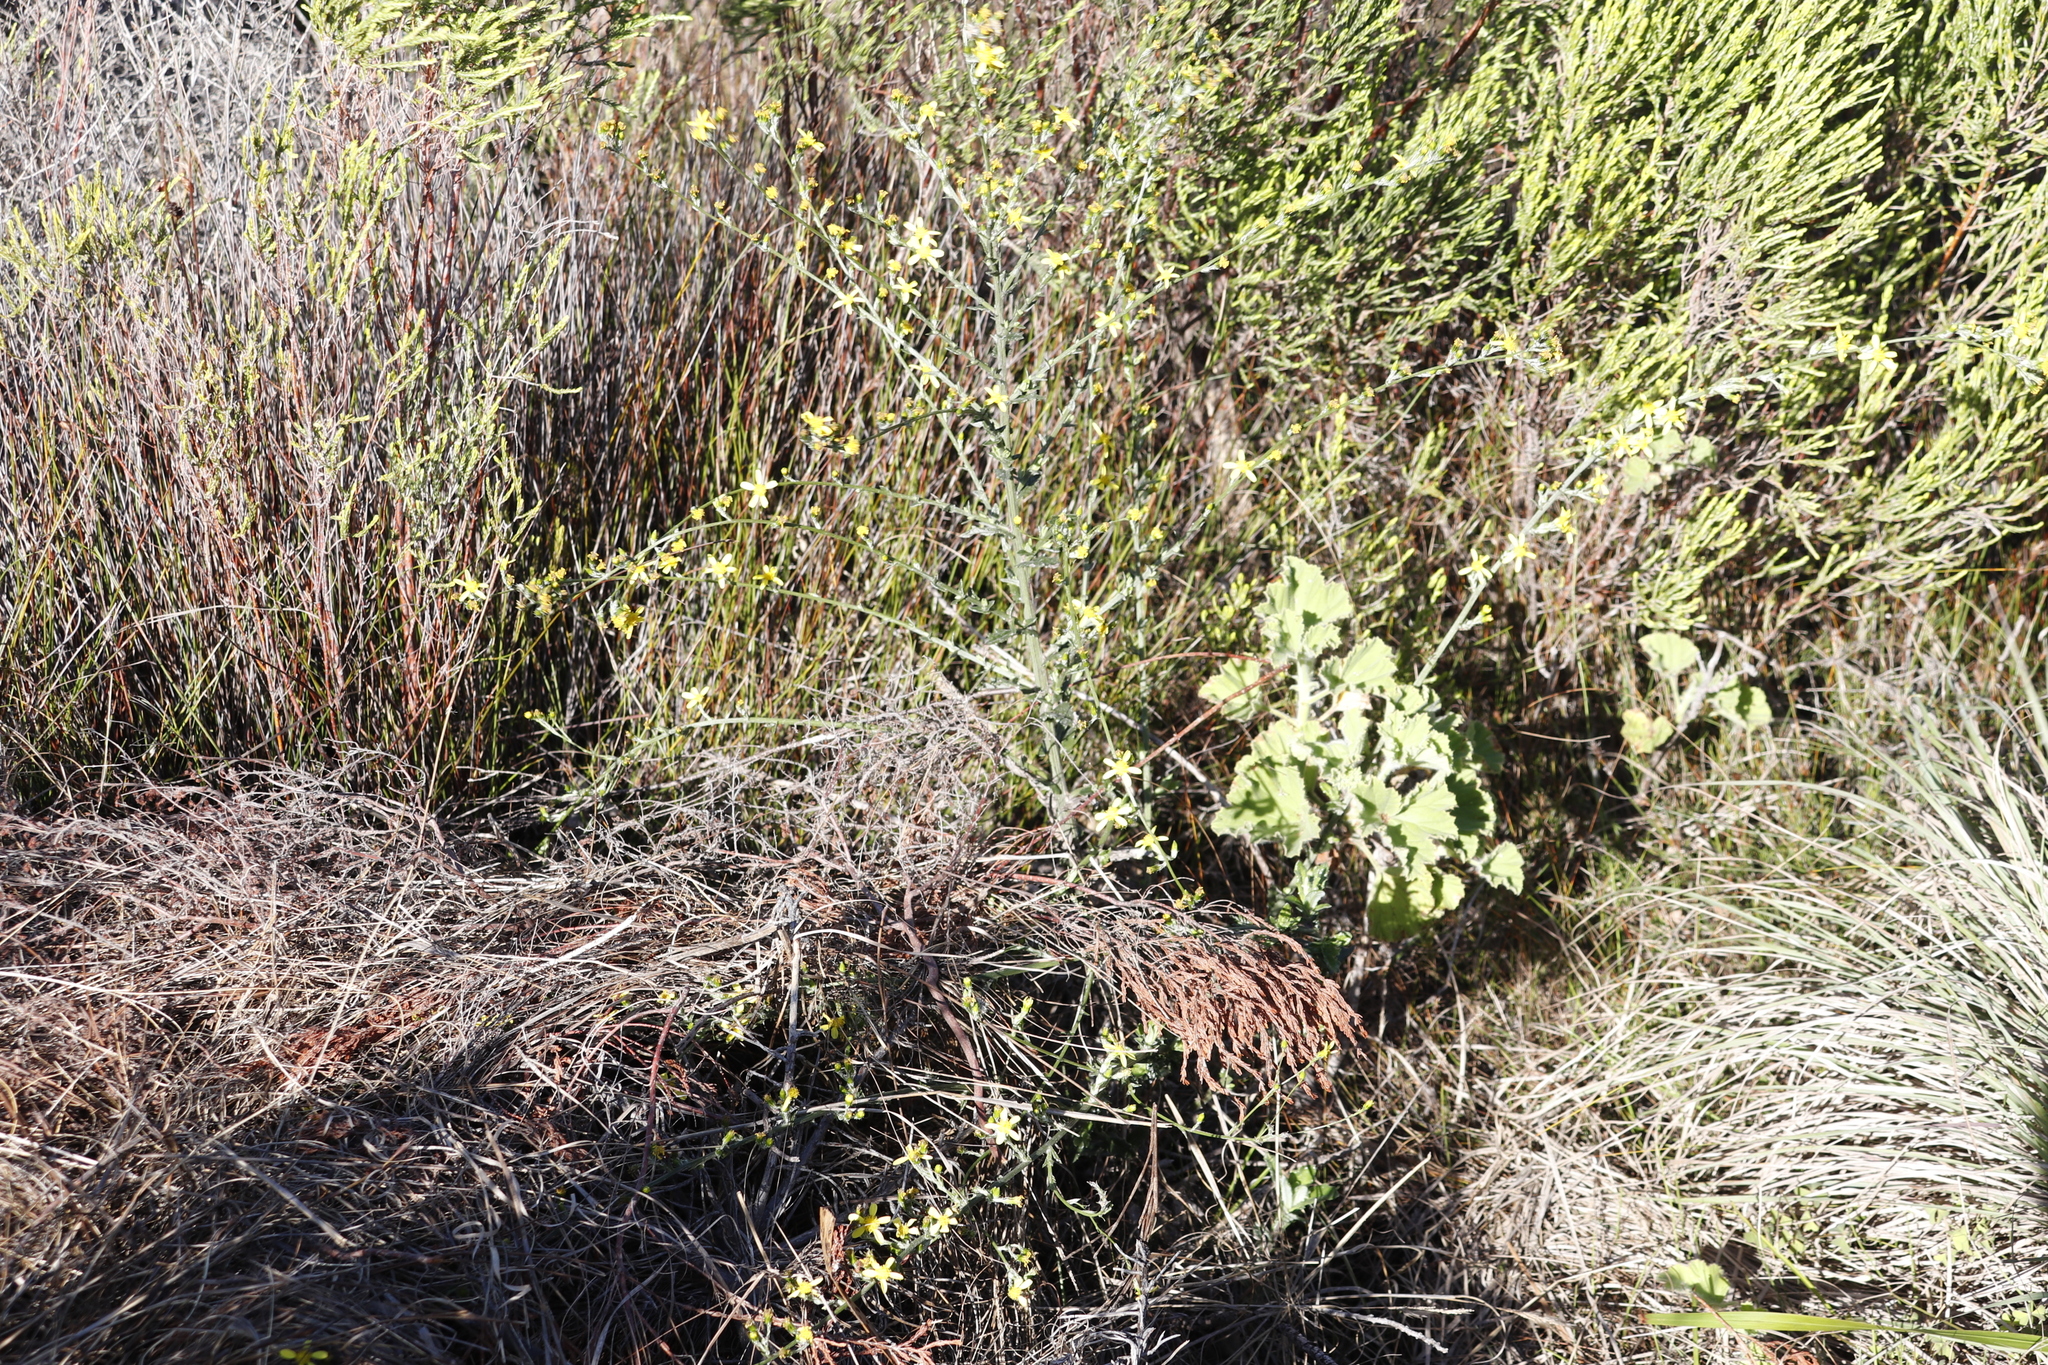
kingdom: Plantae
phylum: Tracheophyta
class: Magnoliopsida
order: Asterales
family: Asteraceae
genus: Senecio
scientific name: Senecio pubigerus
